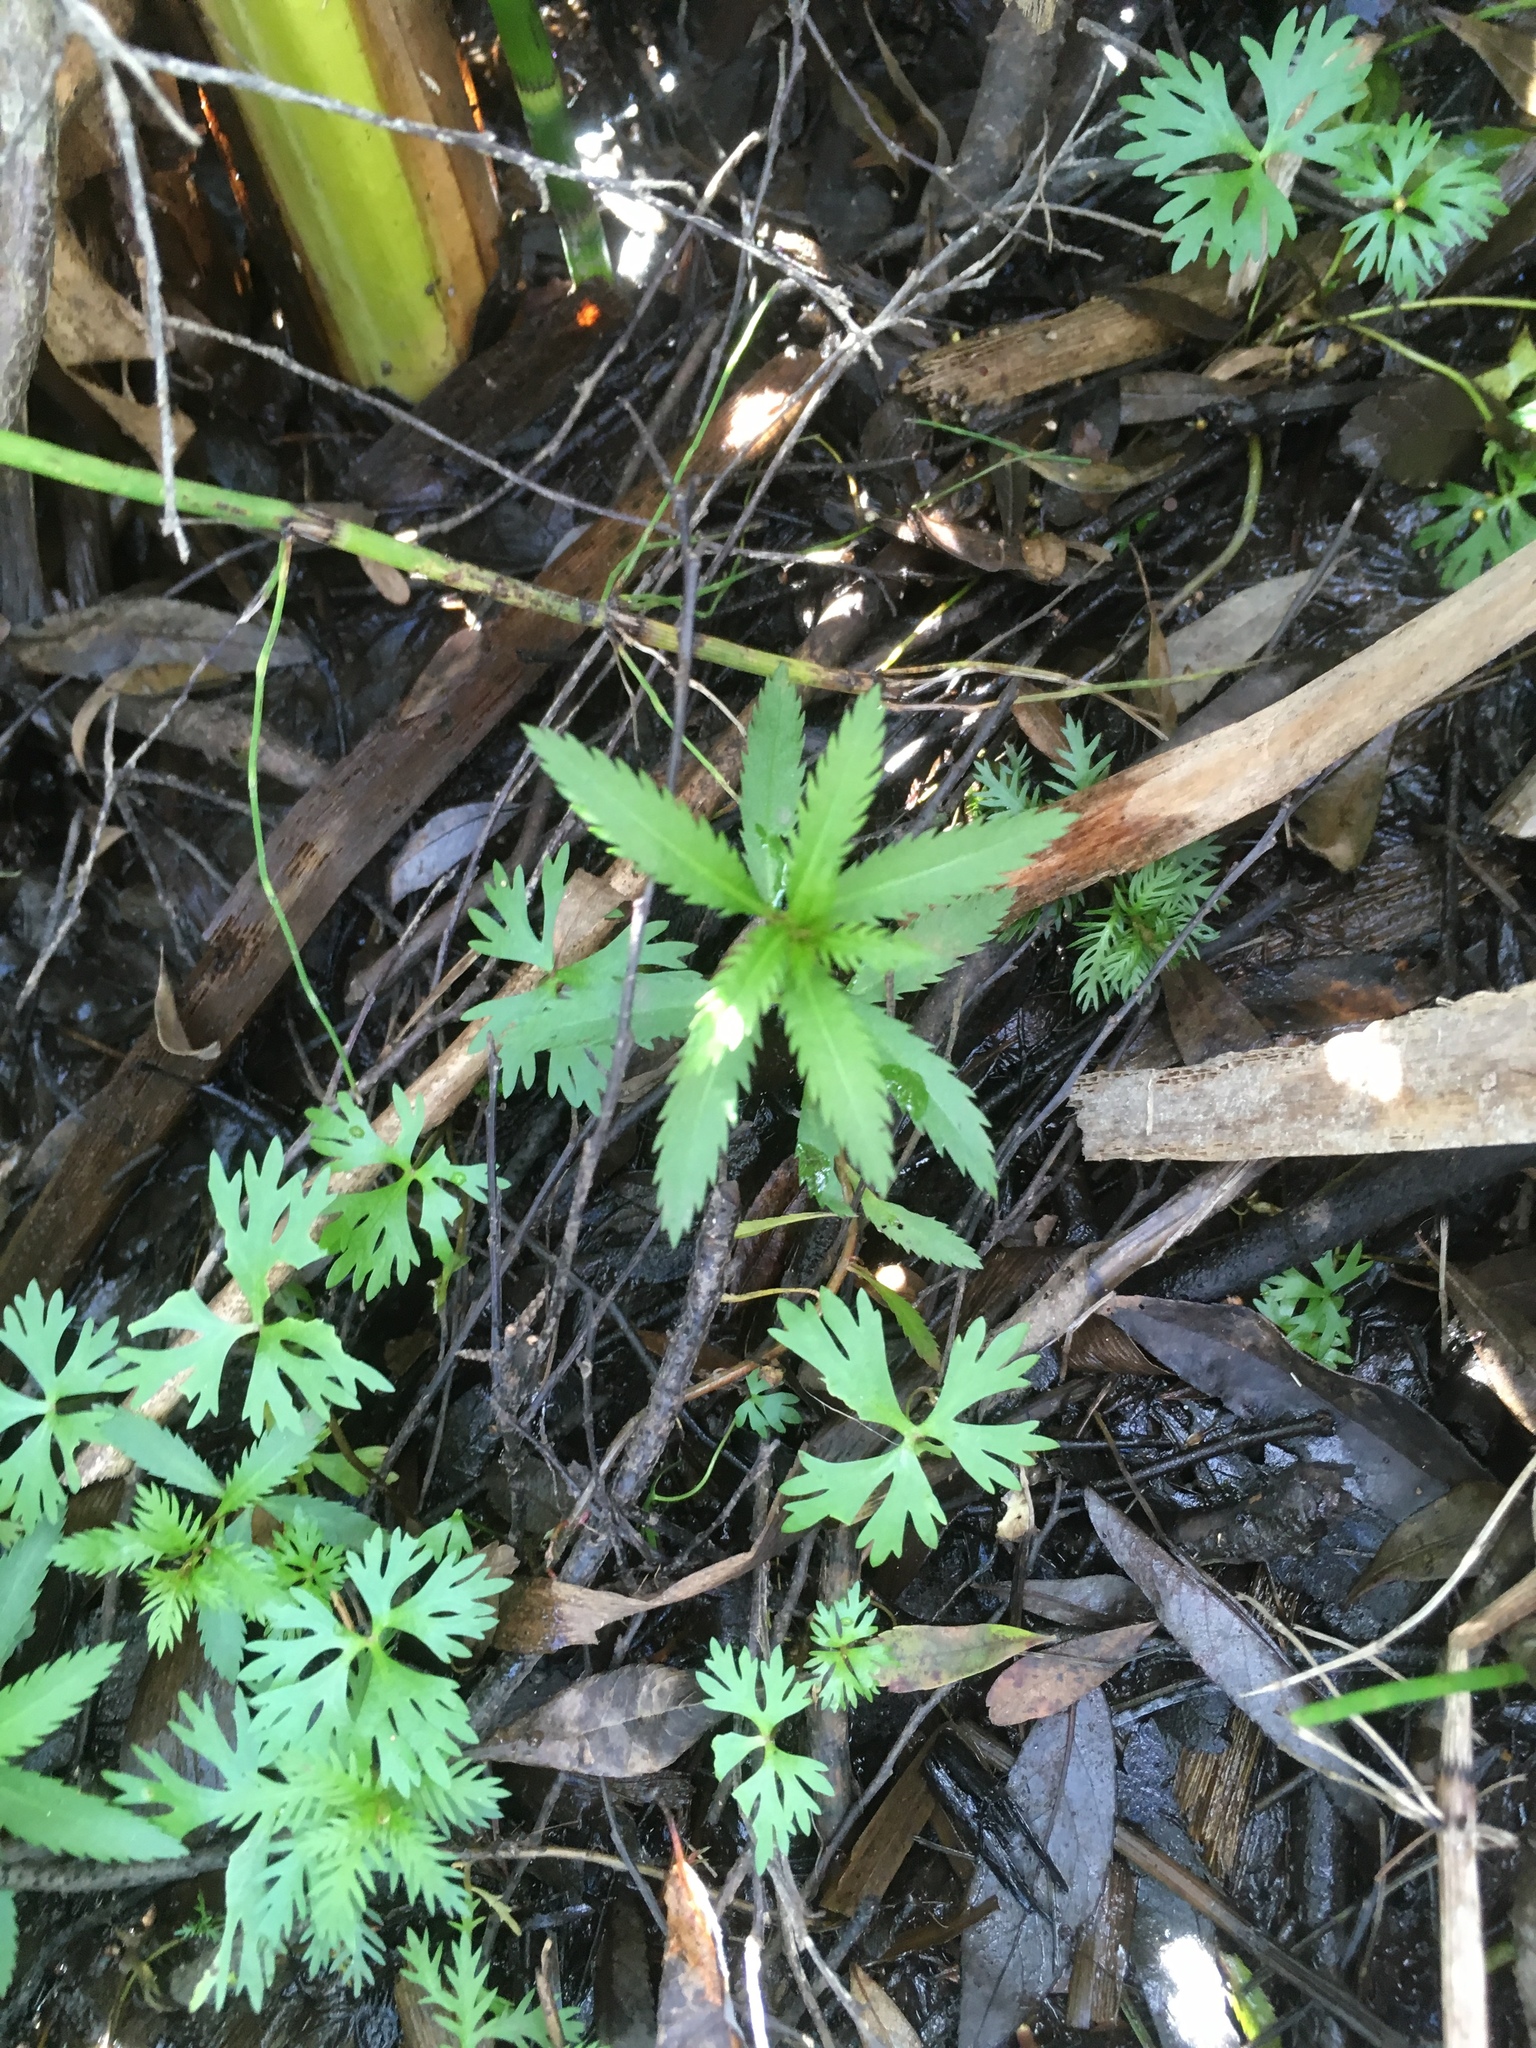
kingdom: Plantae
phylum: Tracheophyta
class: Magnoliopsida
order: Ranunculales
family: Ranunculaceae
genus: Ranunculus
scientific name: Ranunculus flabellaris
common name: Yellow water-crowfoot
